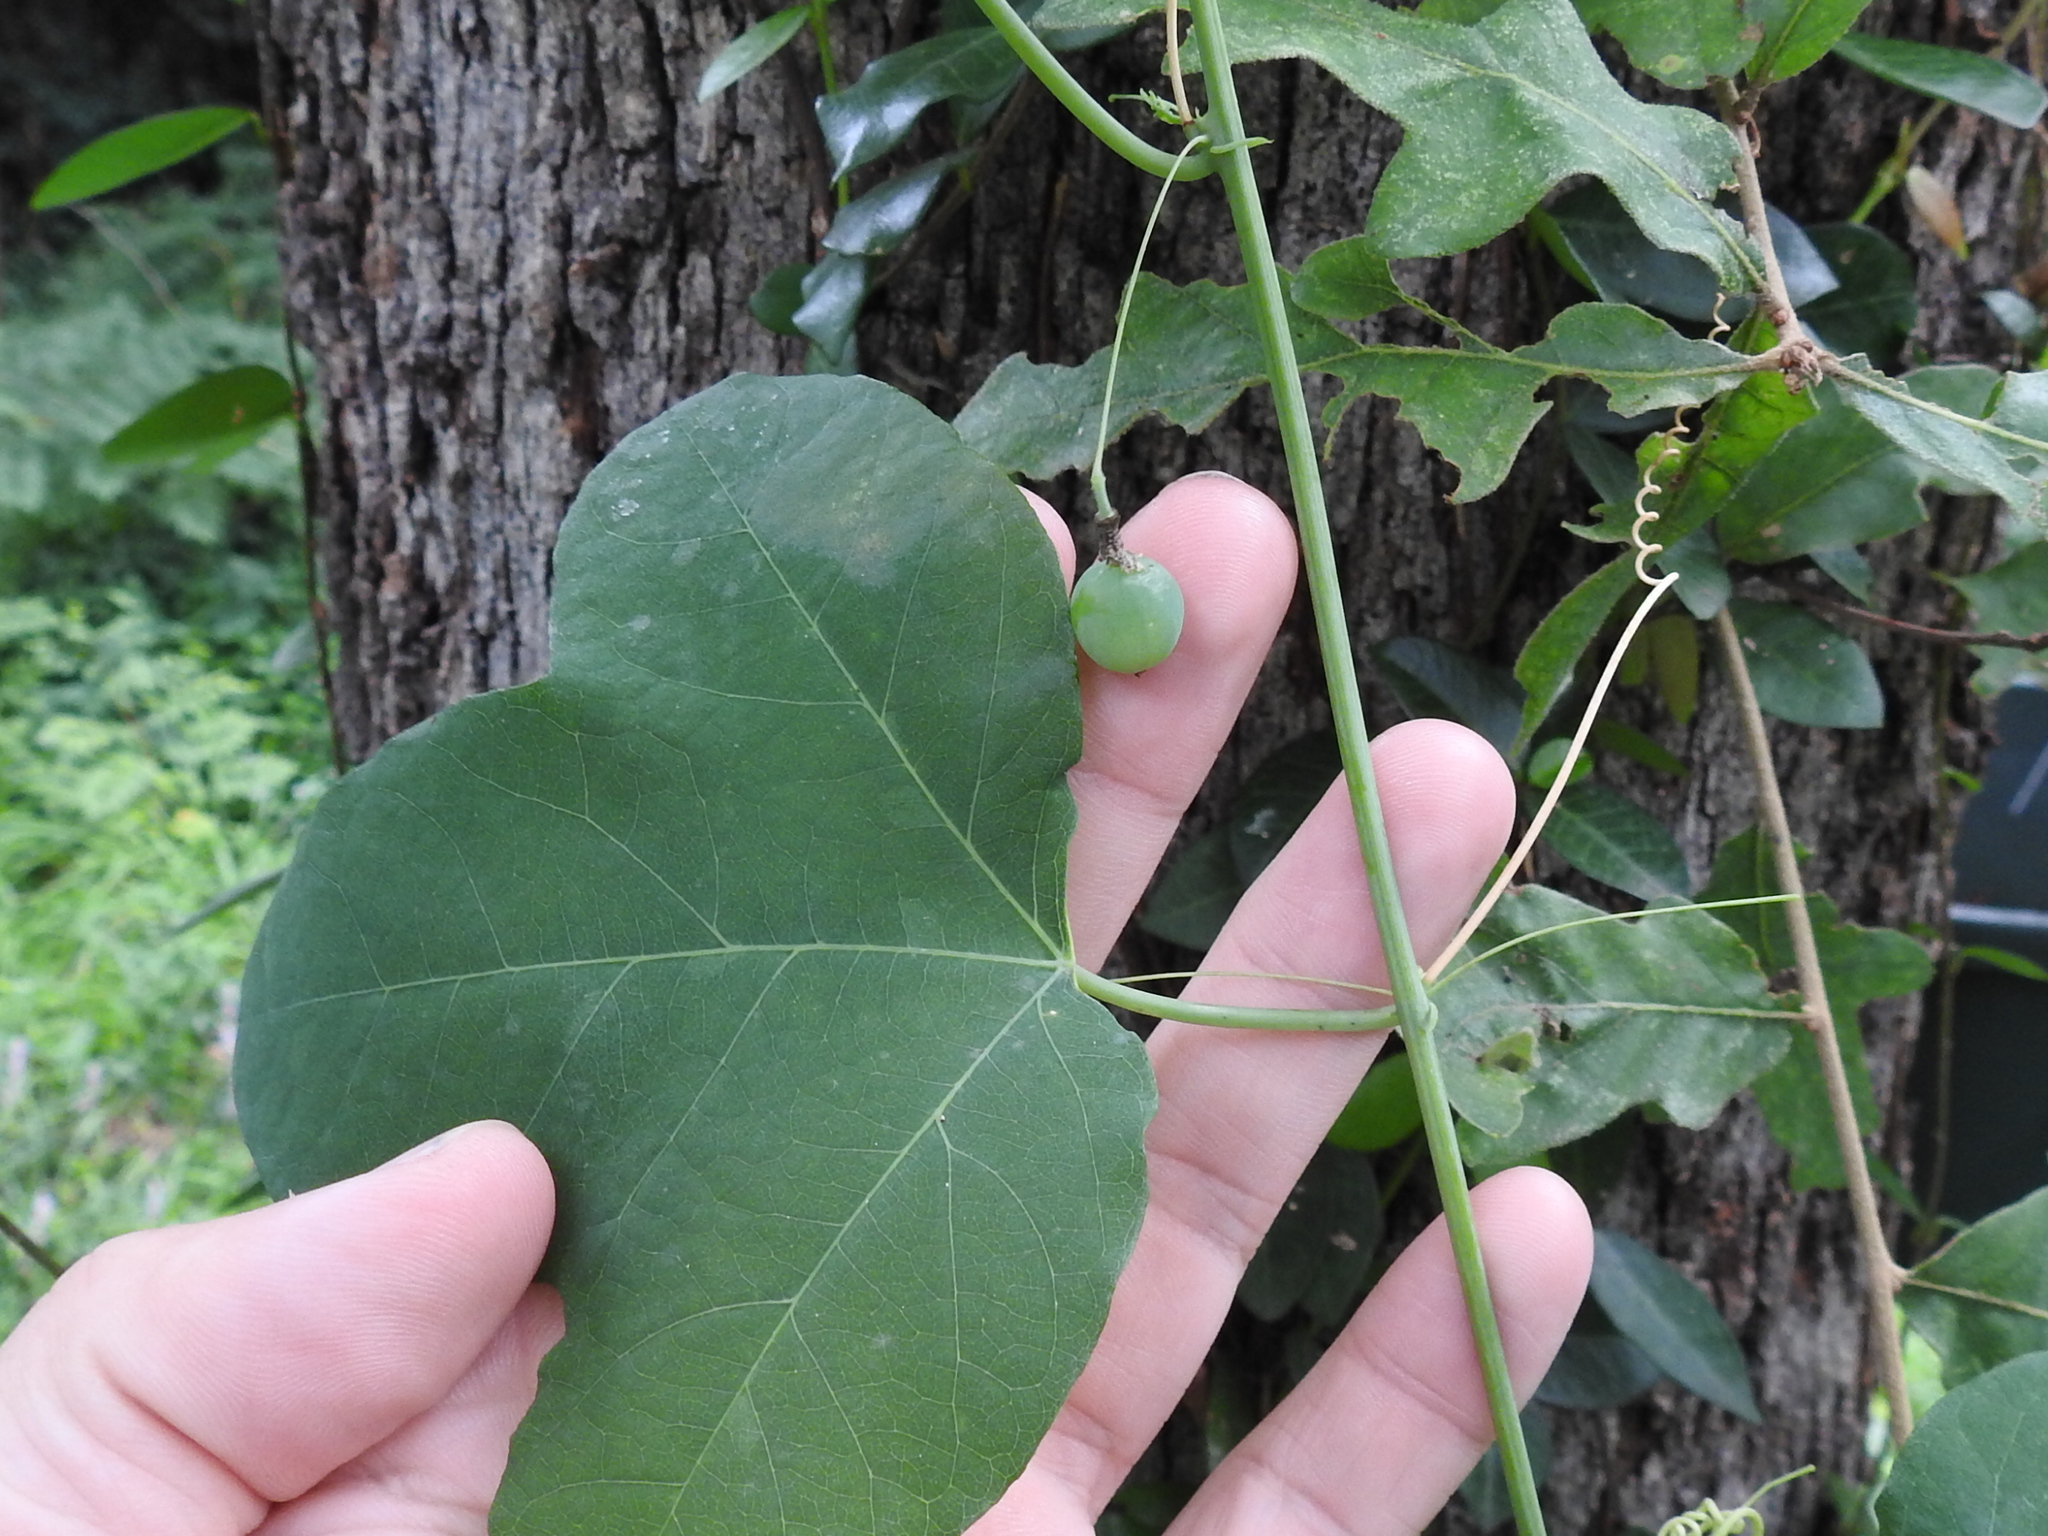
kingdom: Plantae
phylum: Tracheophyta
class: Magnoliopsida
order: Malpighiales
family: Passifloraceae
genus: Passiflora
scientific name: Passiflora lutea
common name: Yellow passionflower
